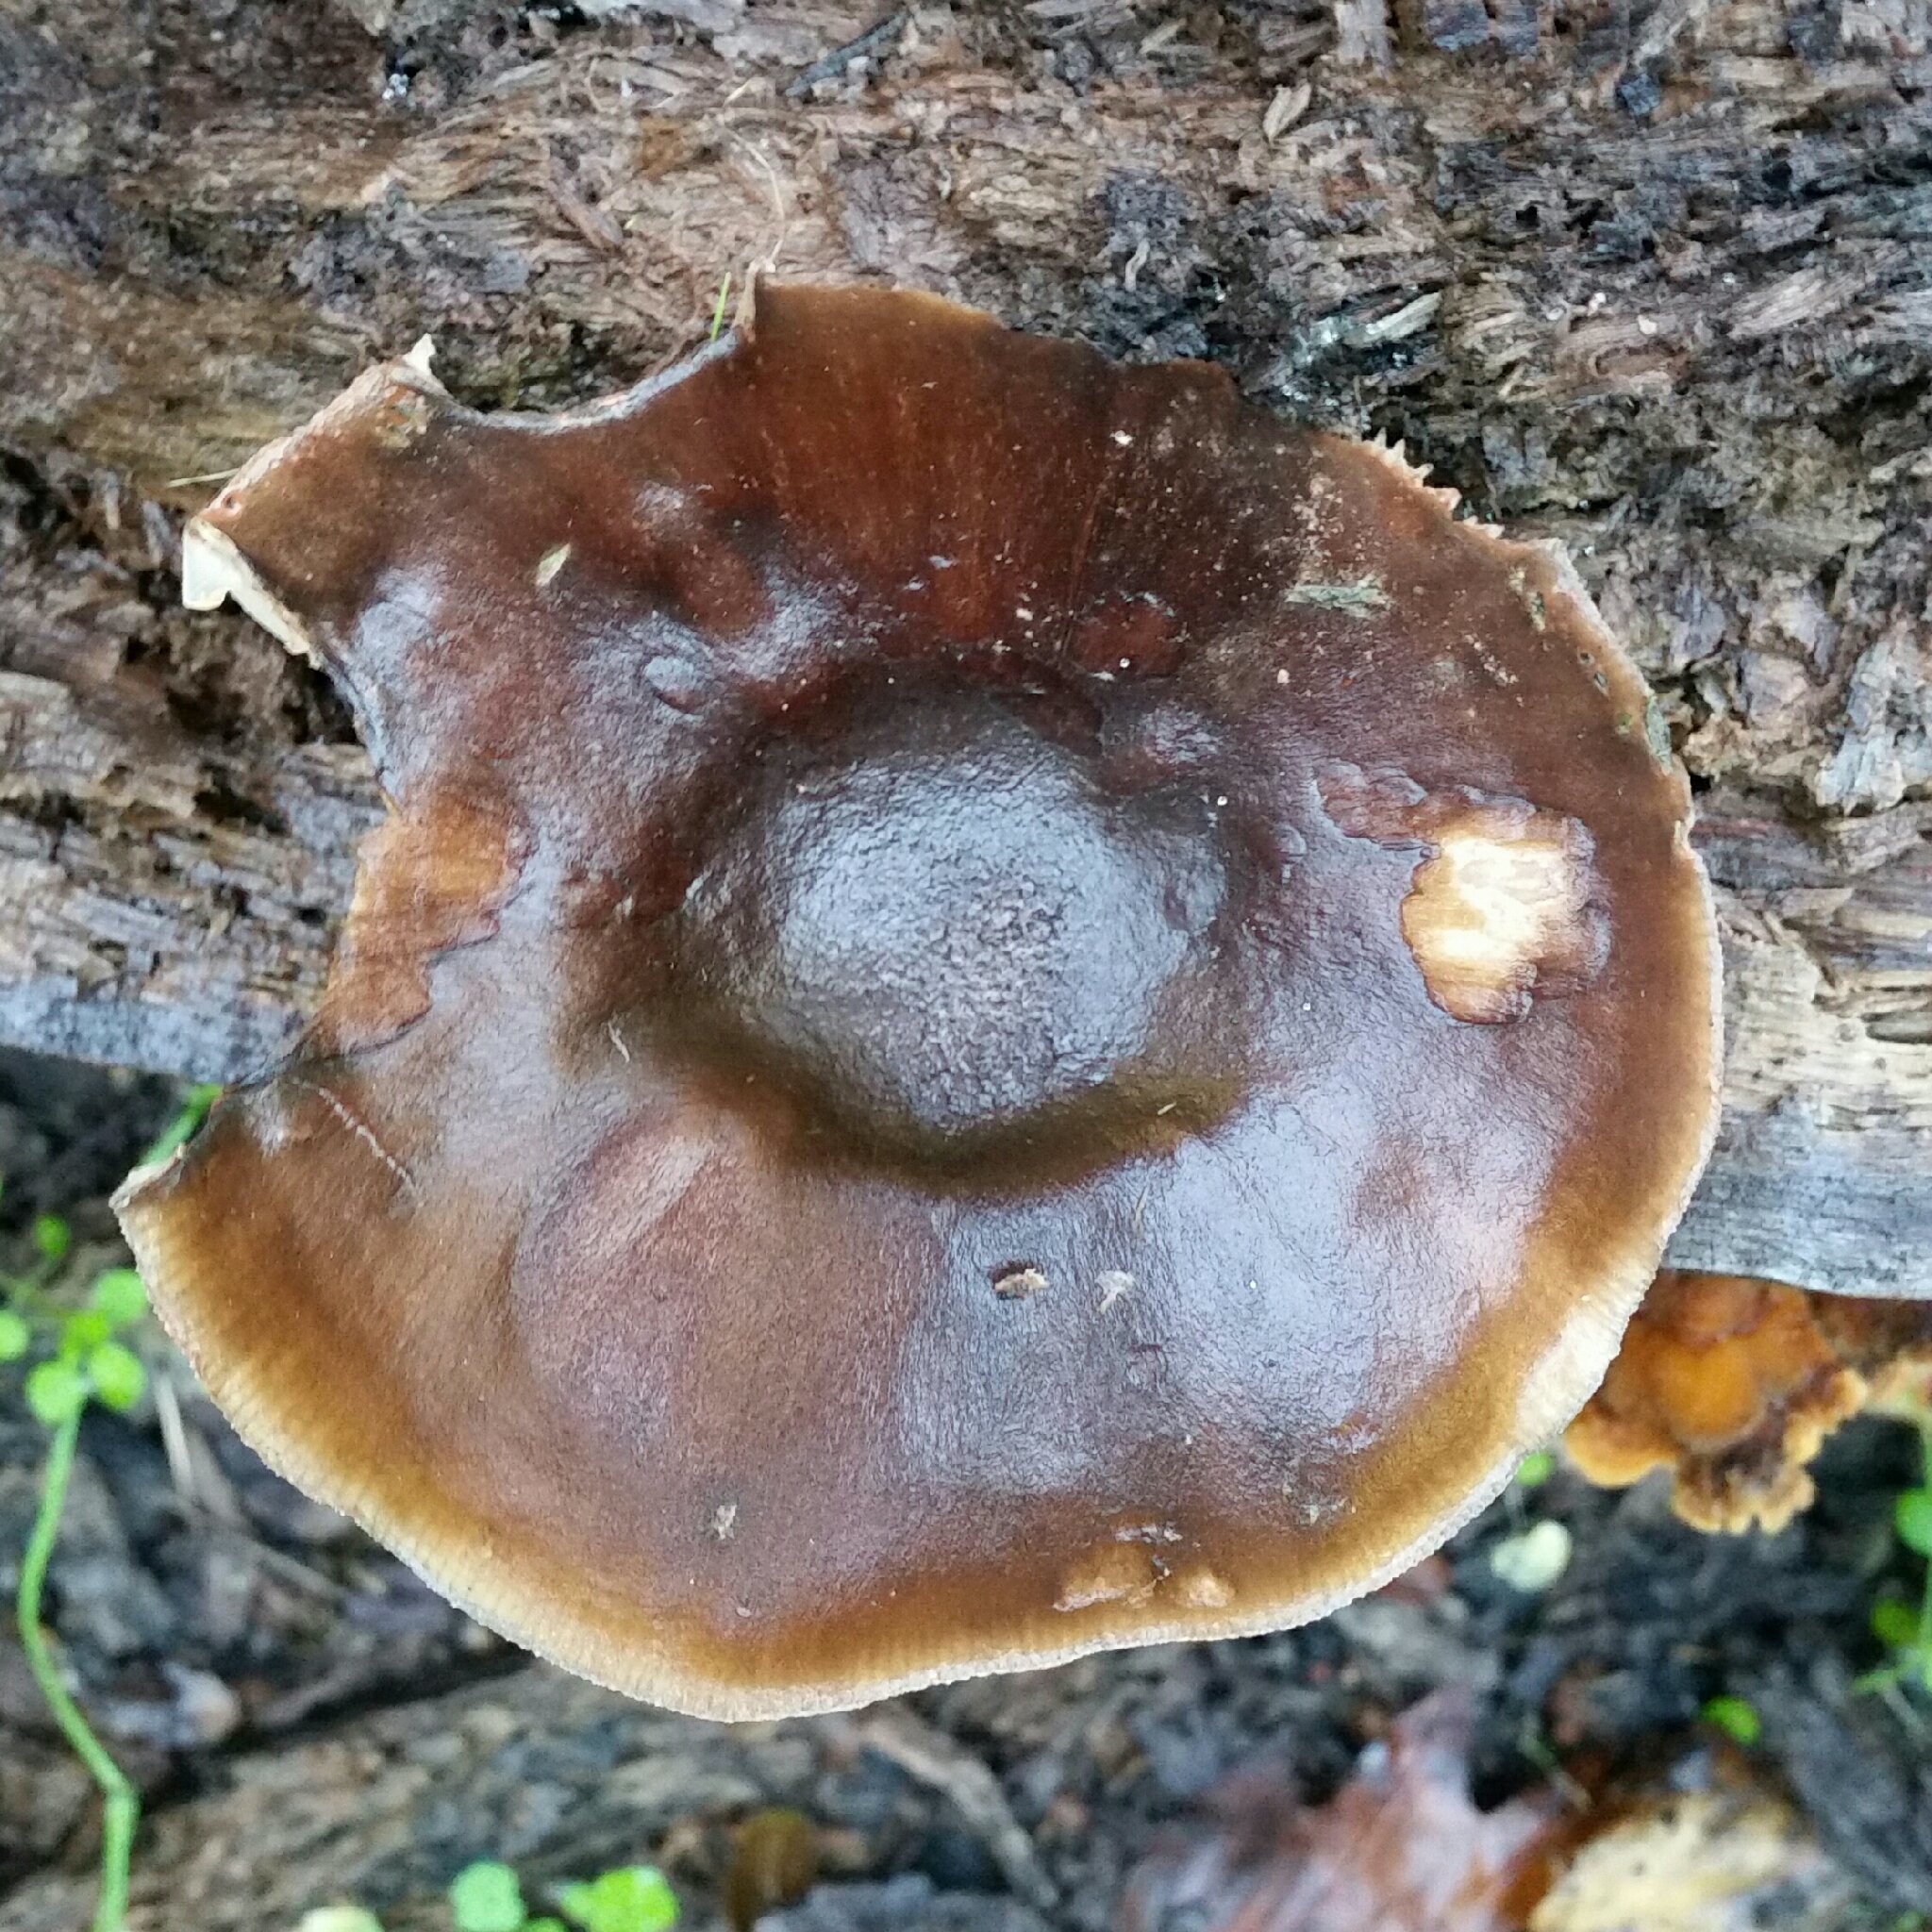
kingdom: Fungi
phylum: Basidiomycota
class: Agaricomycetes
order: Agaricales
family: Pluteaceae
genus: Pluteus
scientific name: Pluteus exilis
